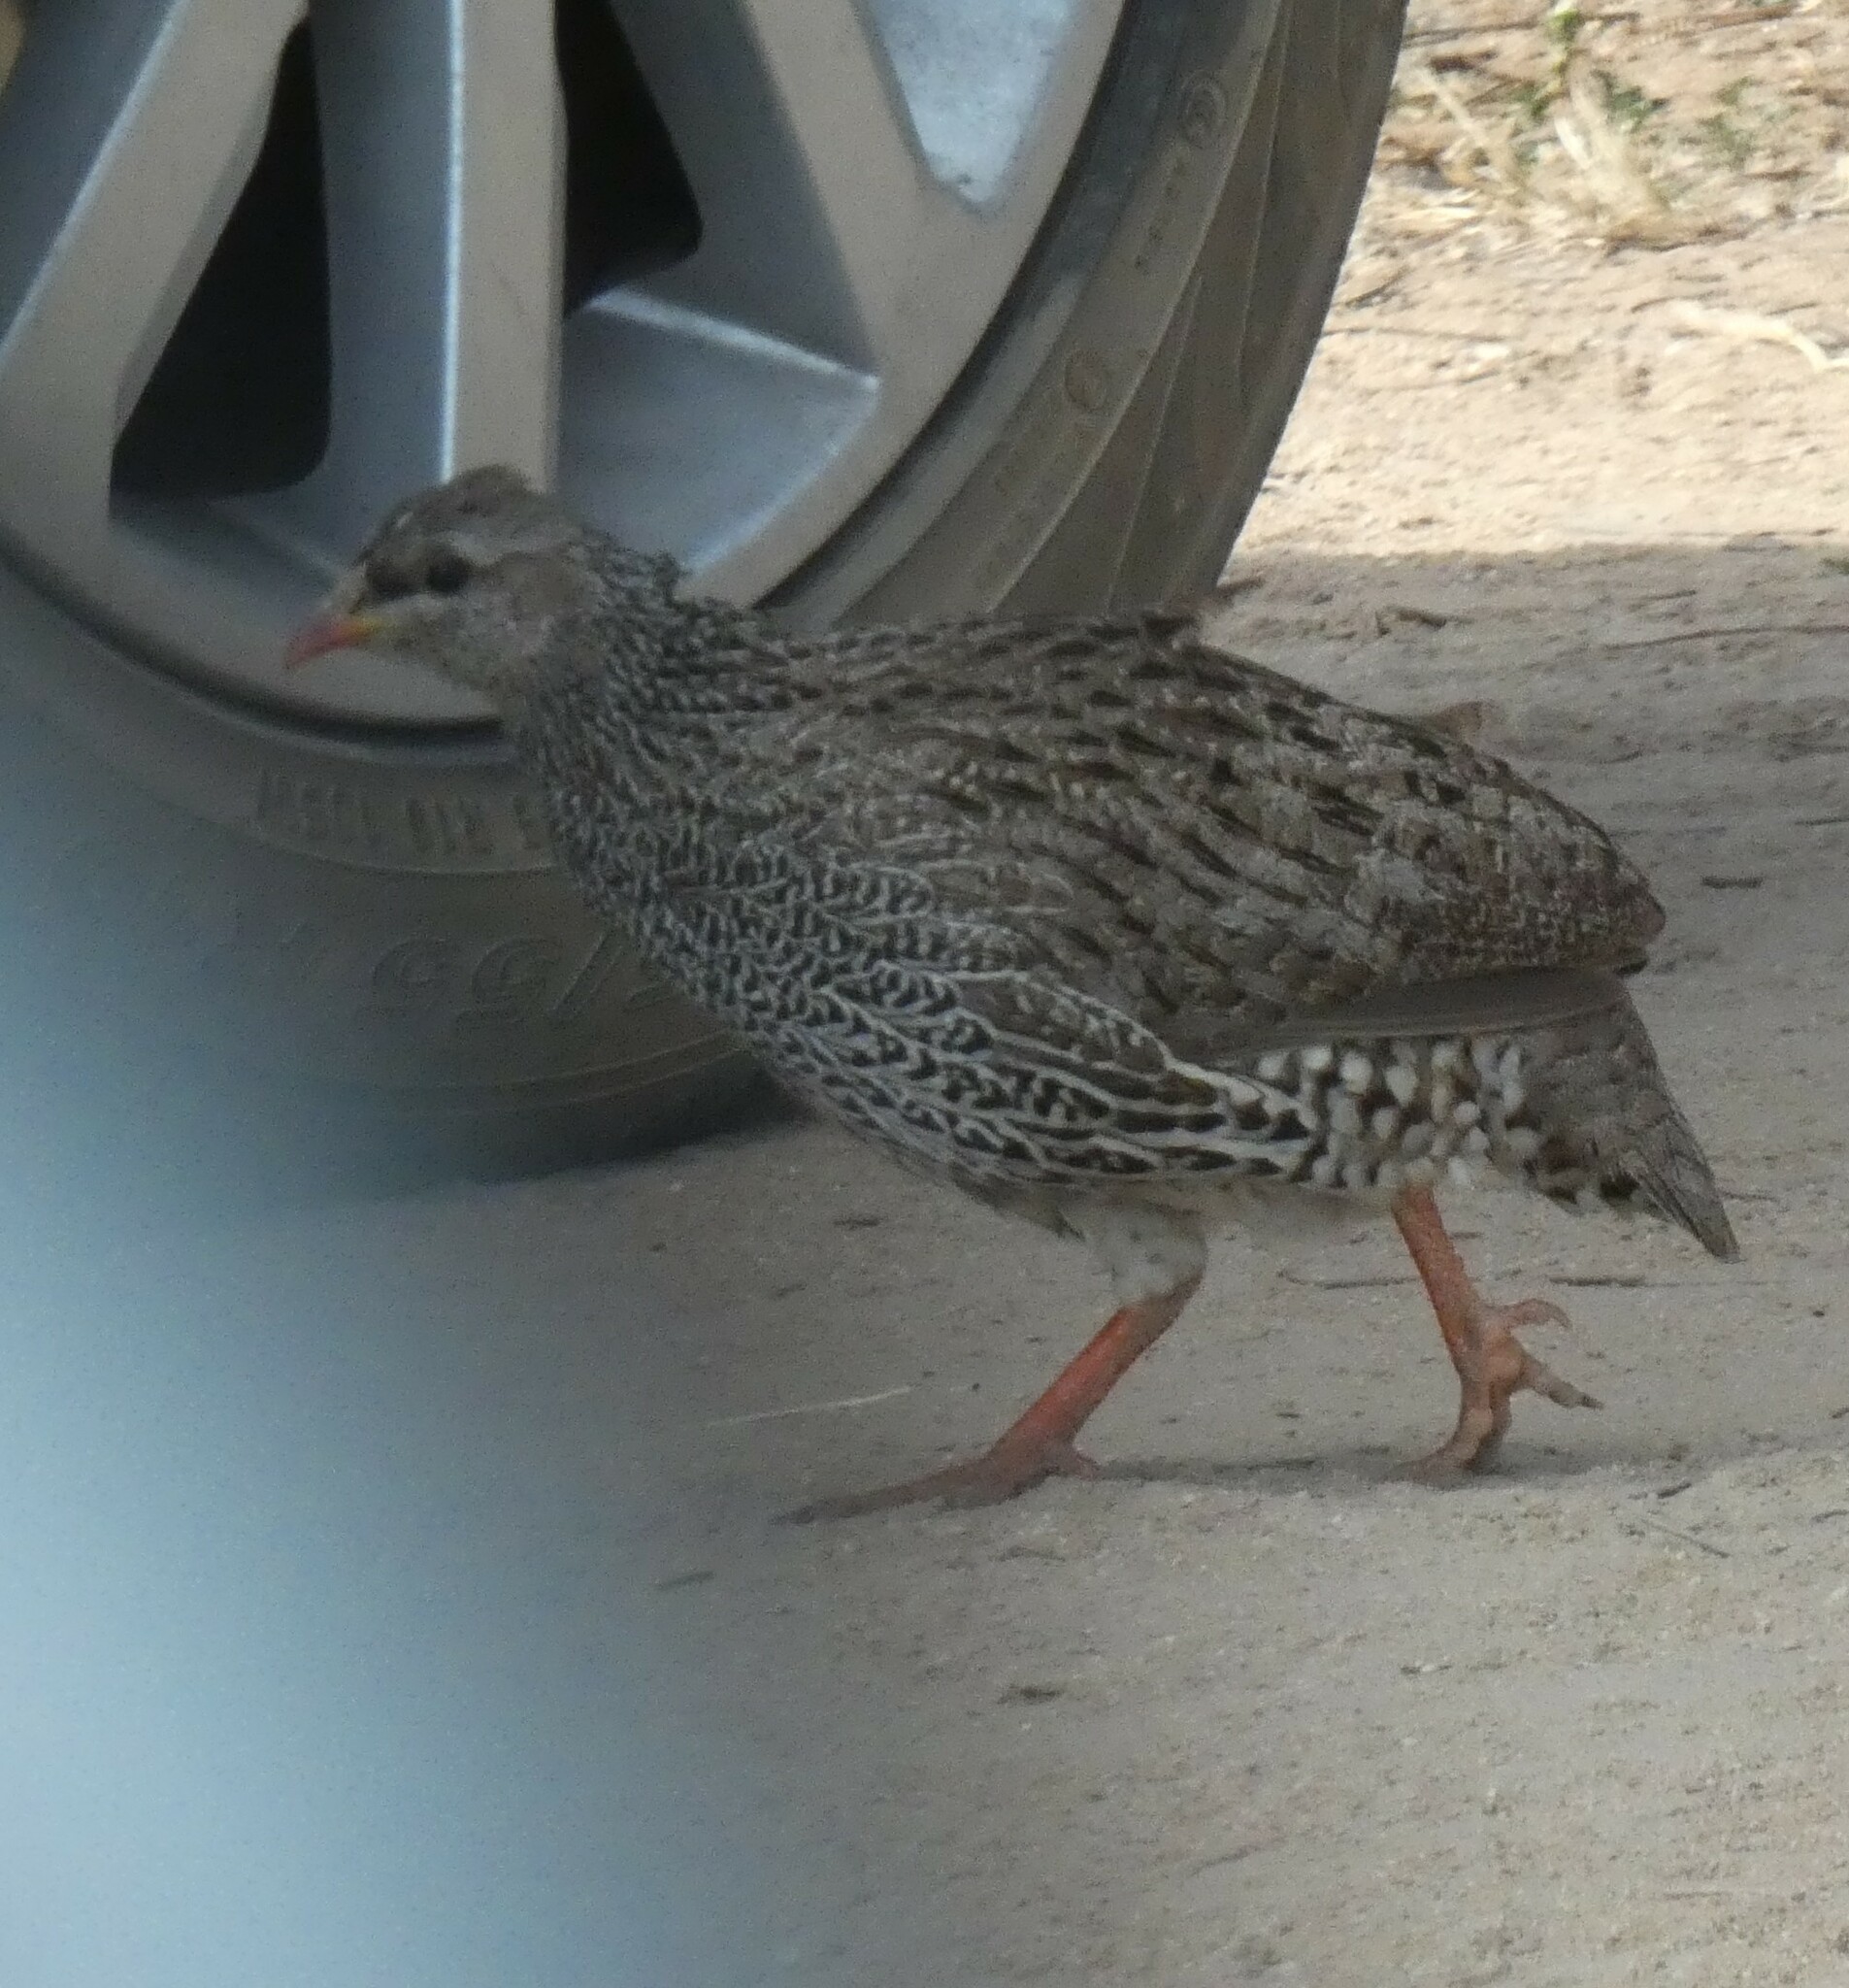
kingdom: Animalia
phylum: Chordata
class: Aves
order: Galliformes
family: Phasianidae
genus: Pternistis
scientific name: Pternistis natalensis
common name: Natal spurfowl
